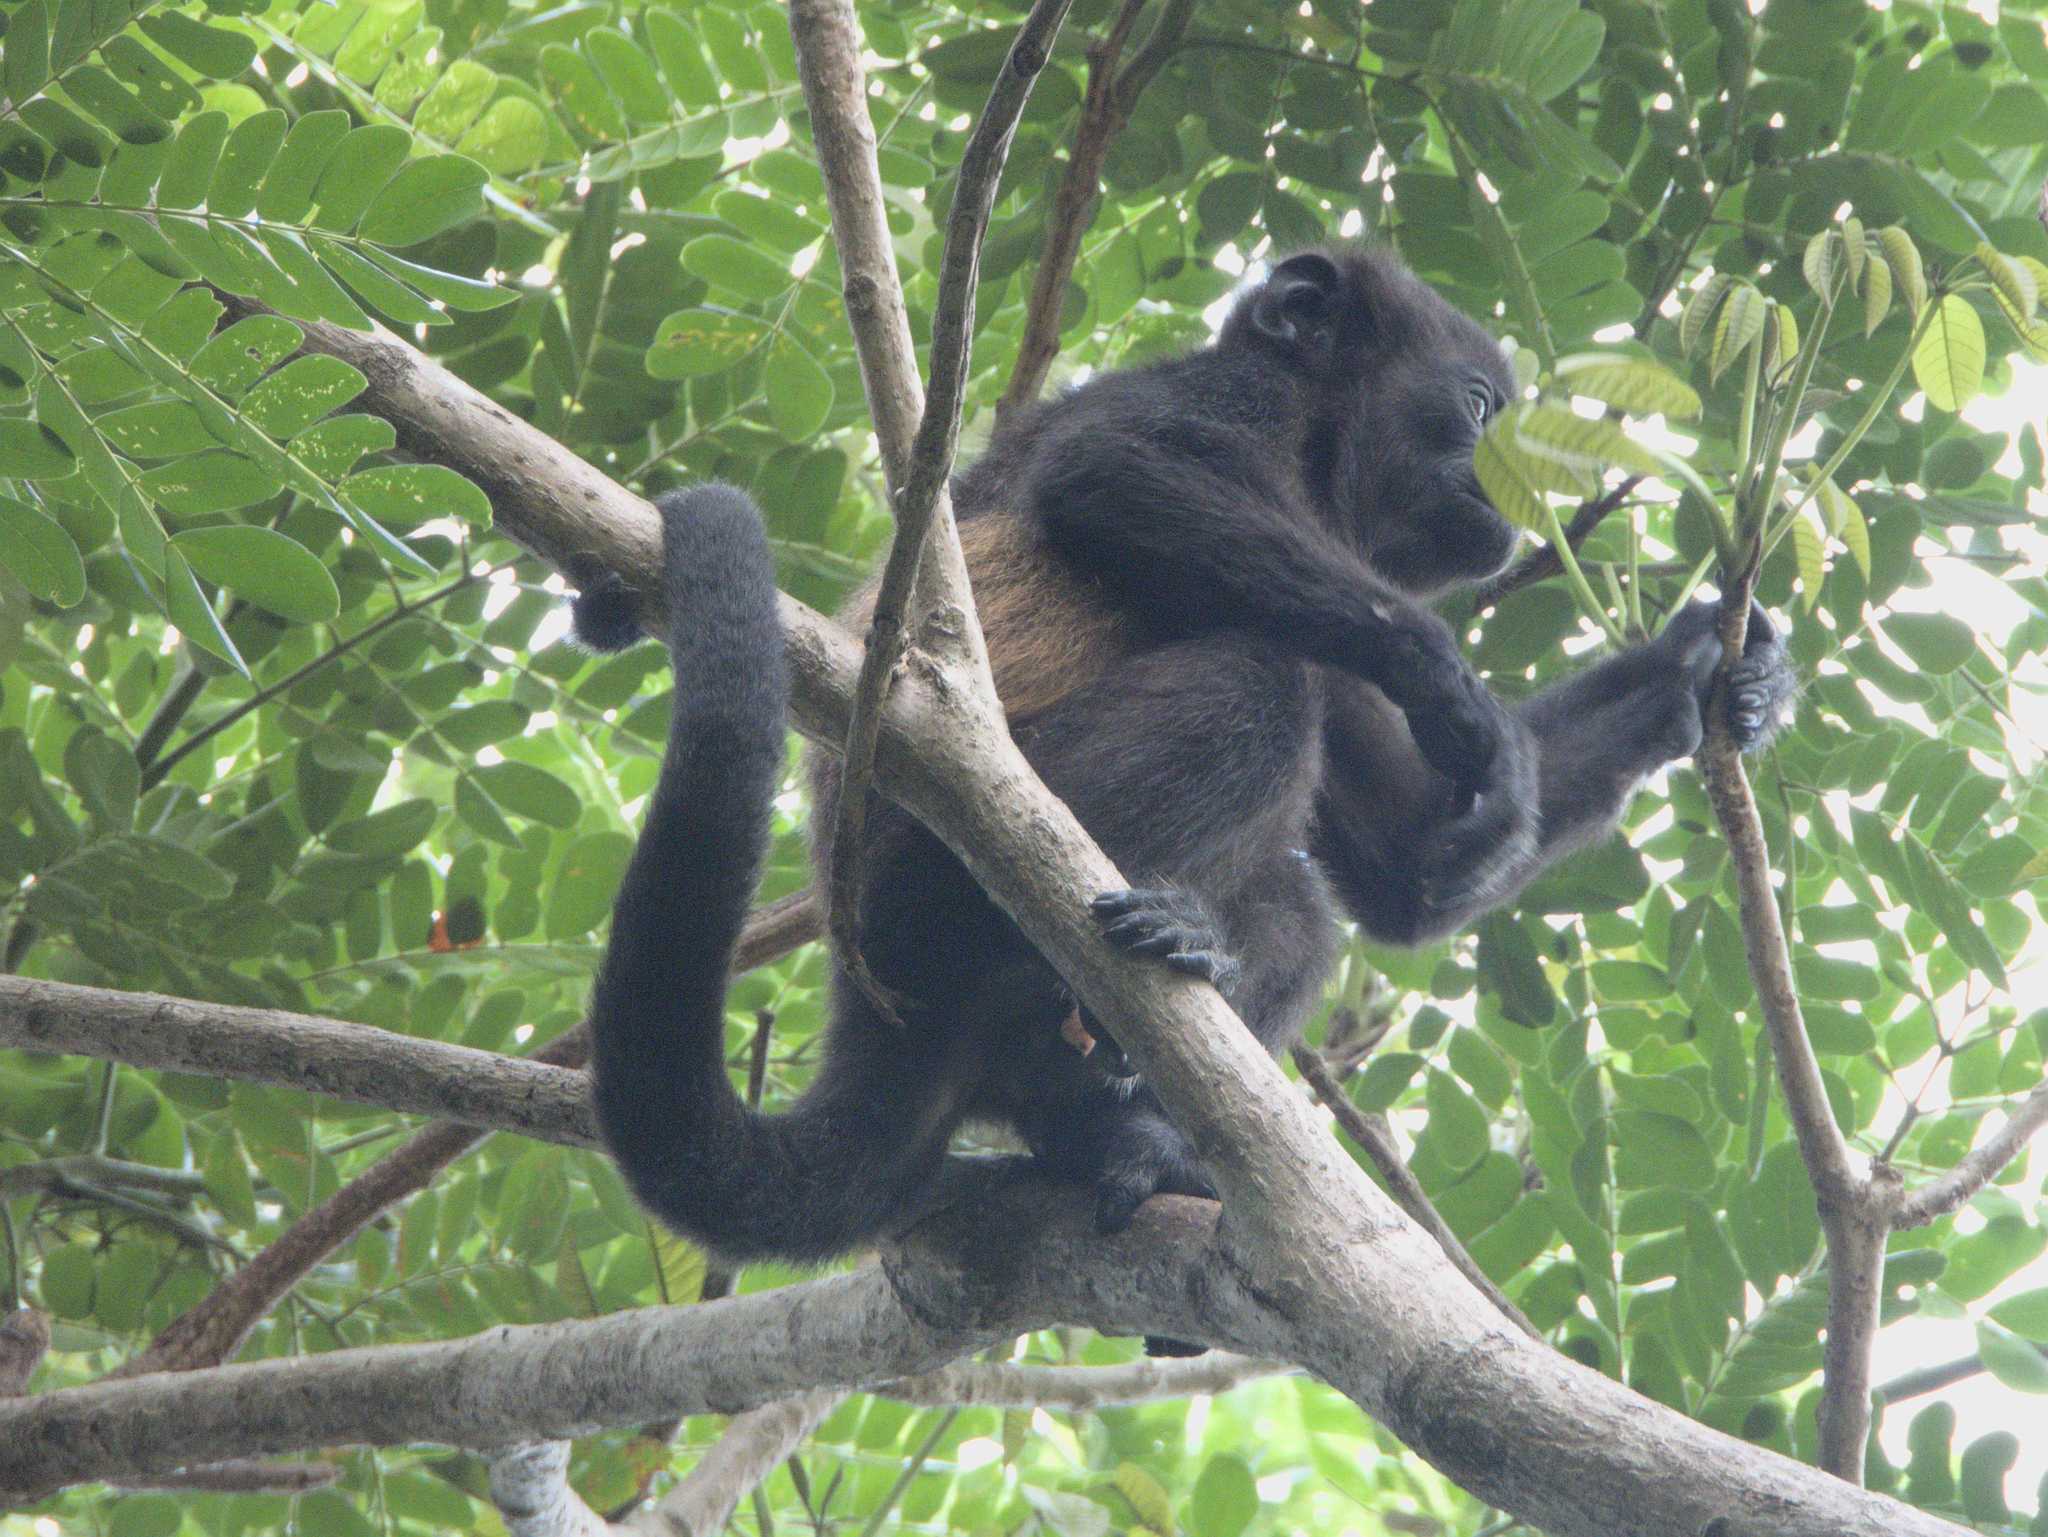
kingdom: Animalia
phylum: Chordata
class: Mammalia
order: Primates
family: Atelidae
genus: Alouatta
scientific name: Alouatta palliata
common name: Mantled howler
